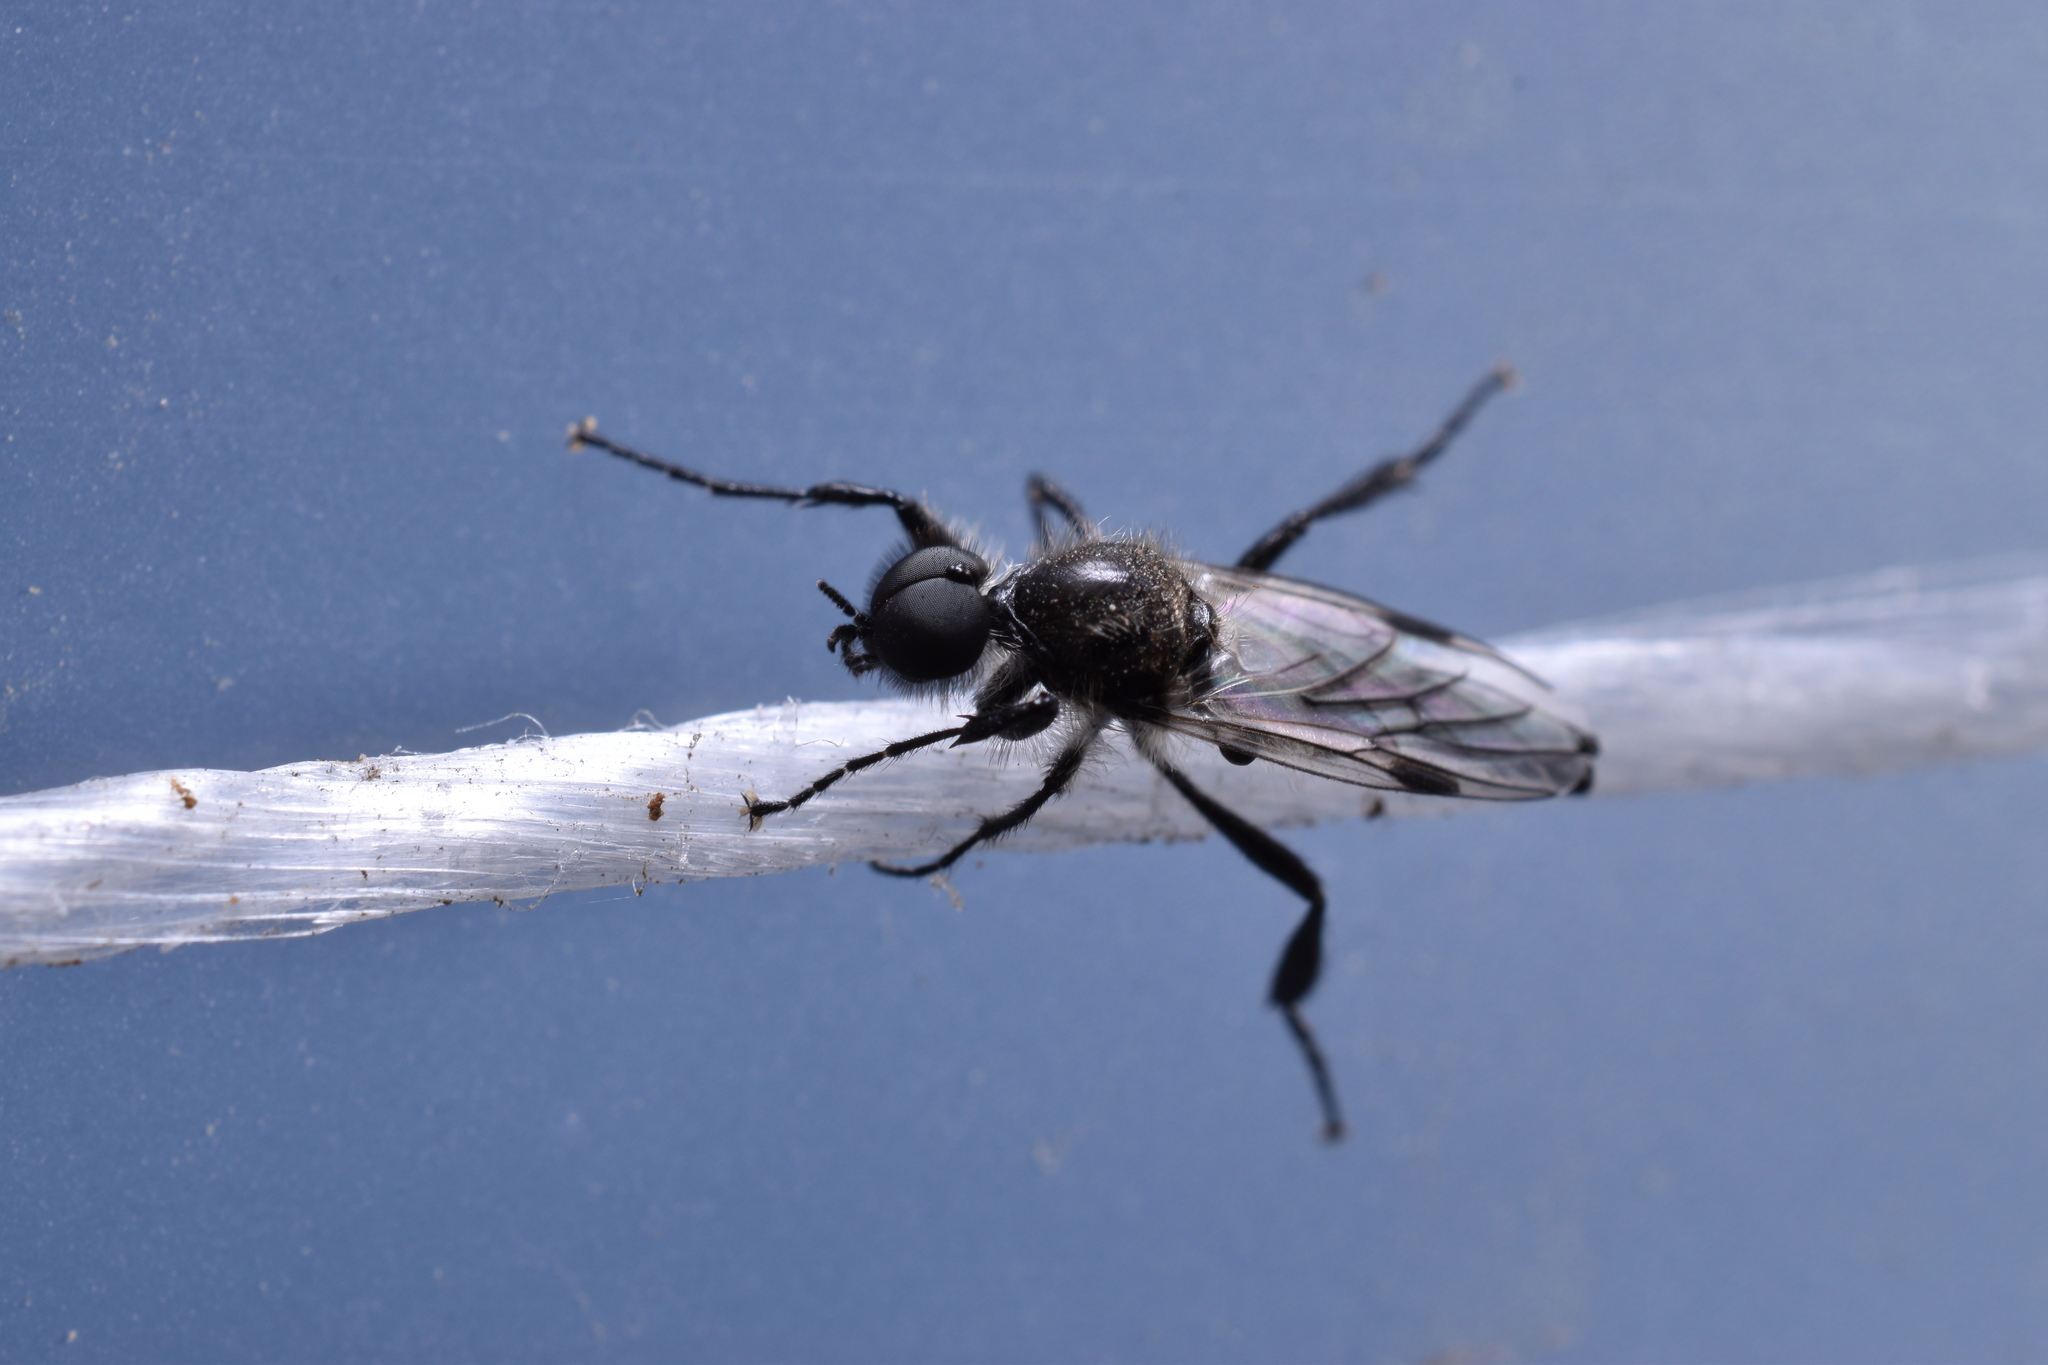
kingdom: Animalia
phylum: Arthropoda
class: Insecta
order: Diptera
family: Bibionidae
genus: Bibio
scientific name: Bibio albipennis
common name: White-winged march fly
